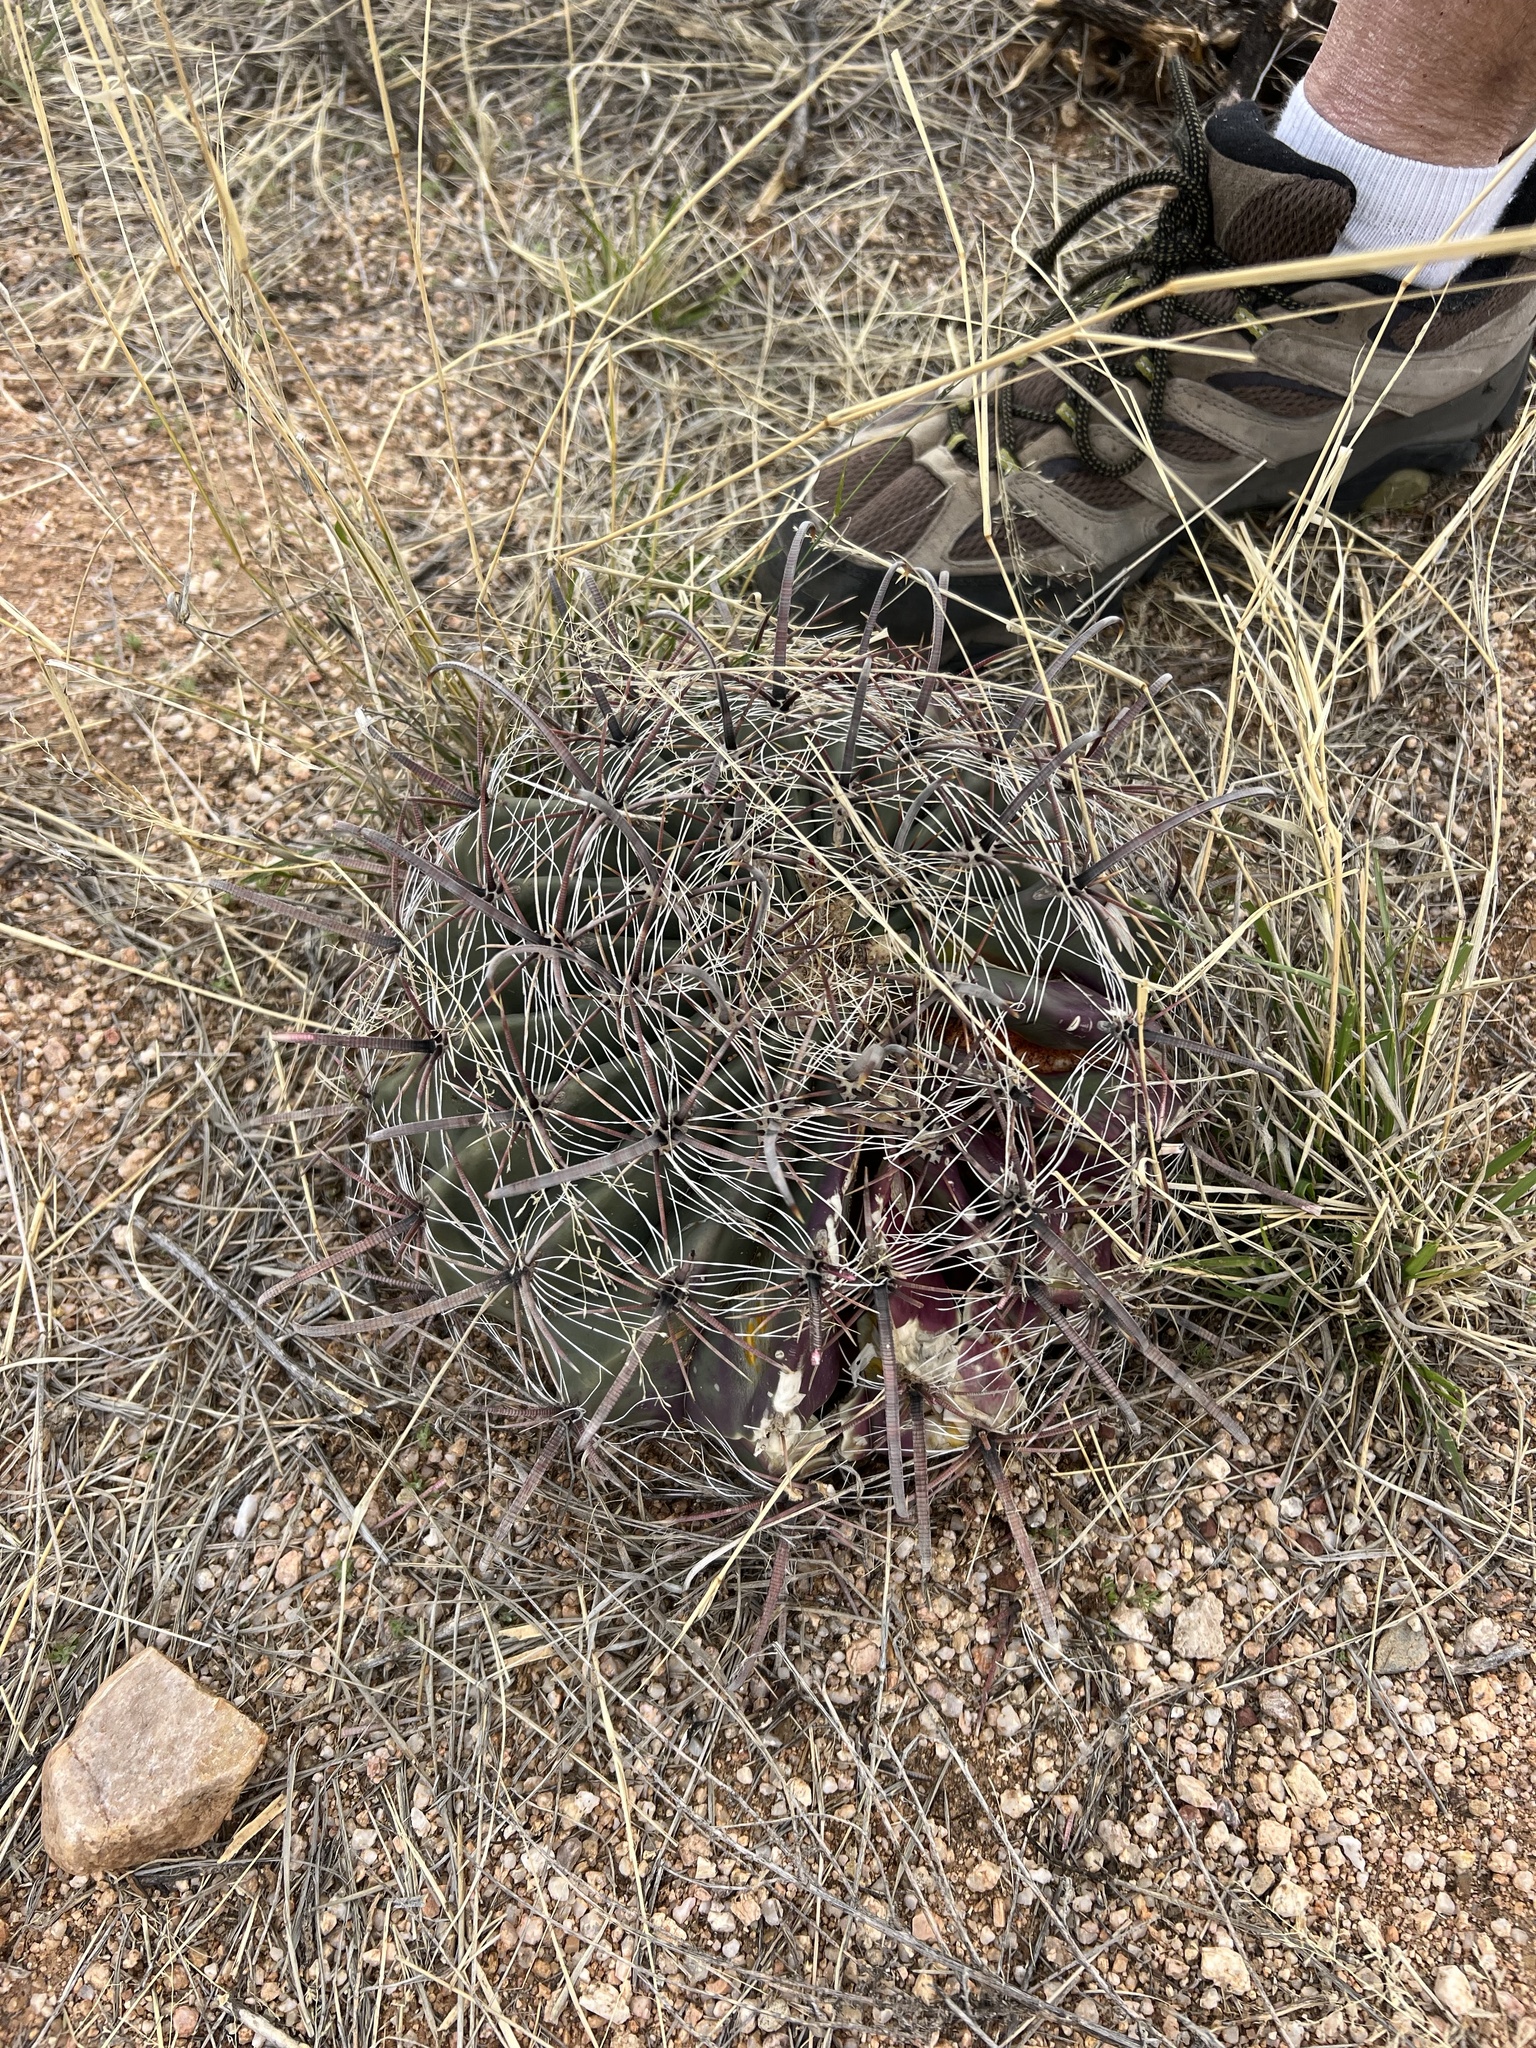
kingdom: Plantae
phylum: Tracheophyta
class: Magnoliopsida
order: Caryophyllales
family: Cactaceae
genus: Ferocactus
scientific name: Ferocactus wislizeni
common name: Candy barrel cactus
